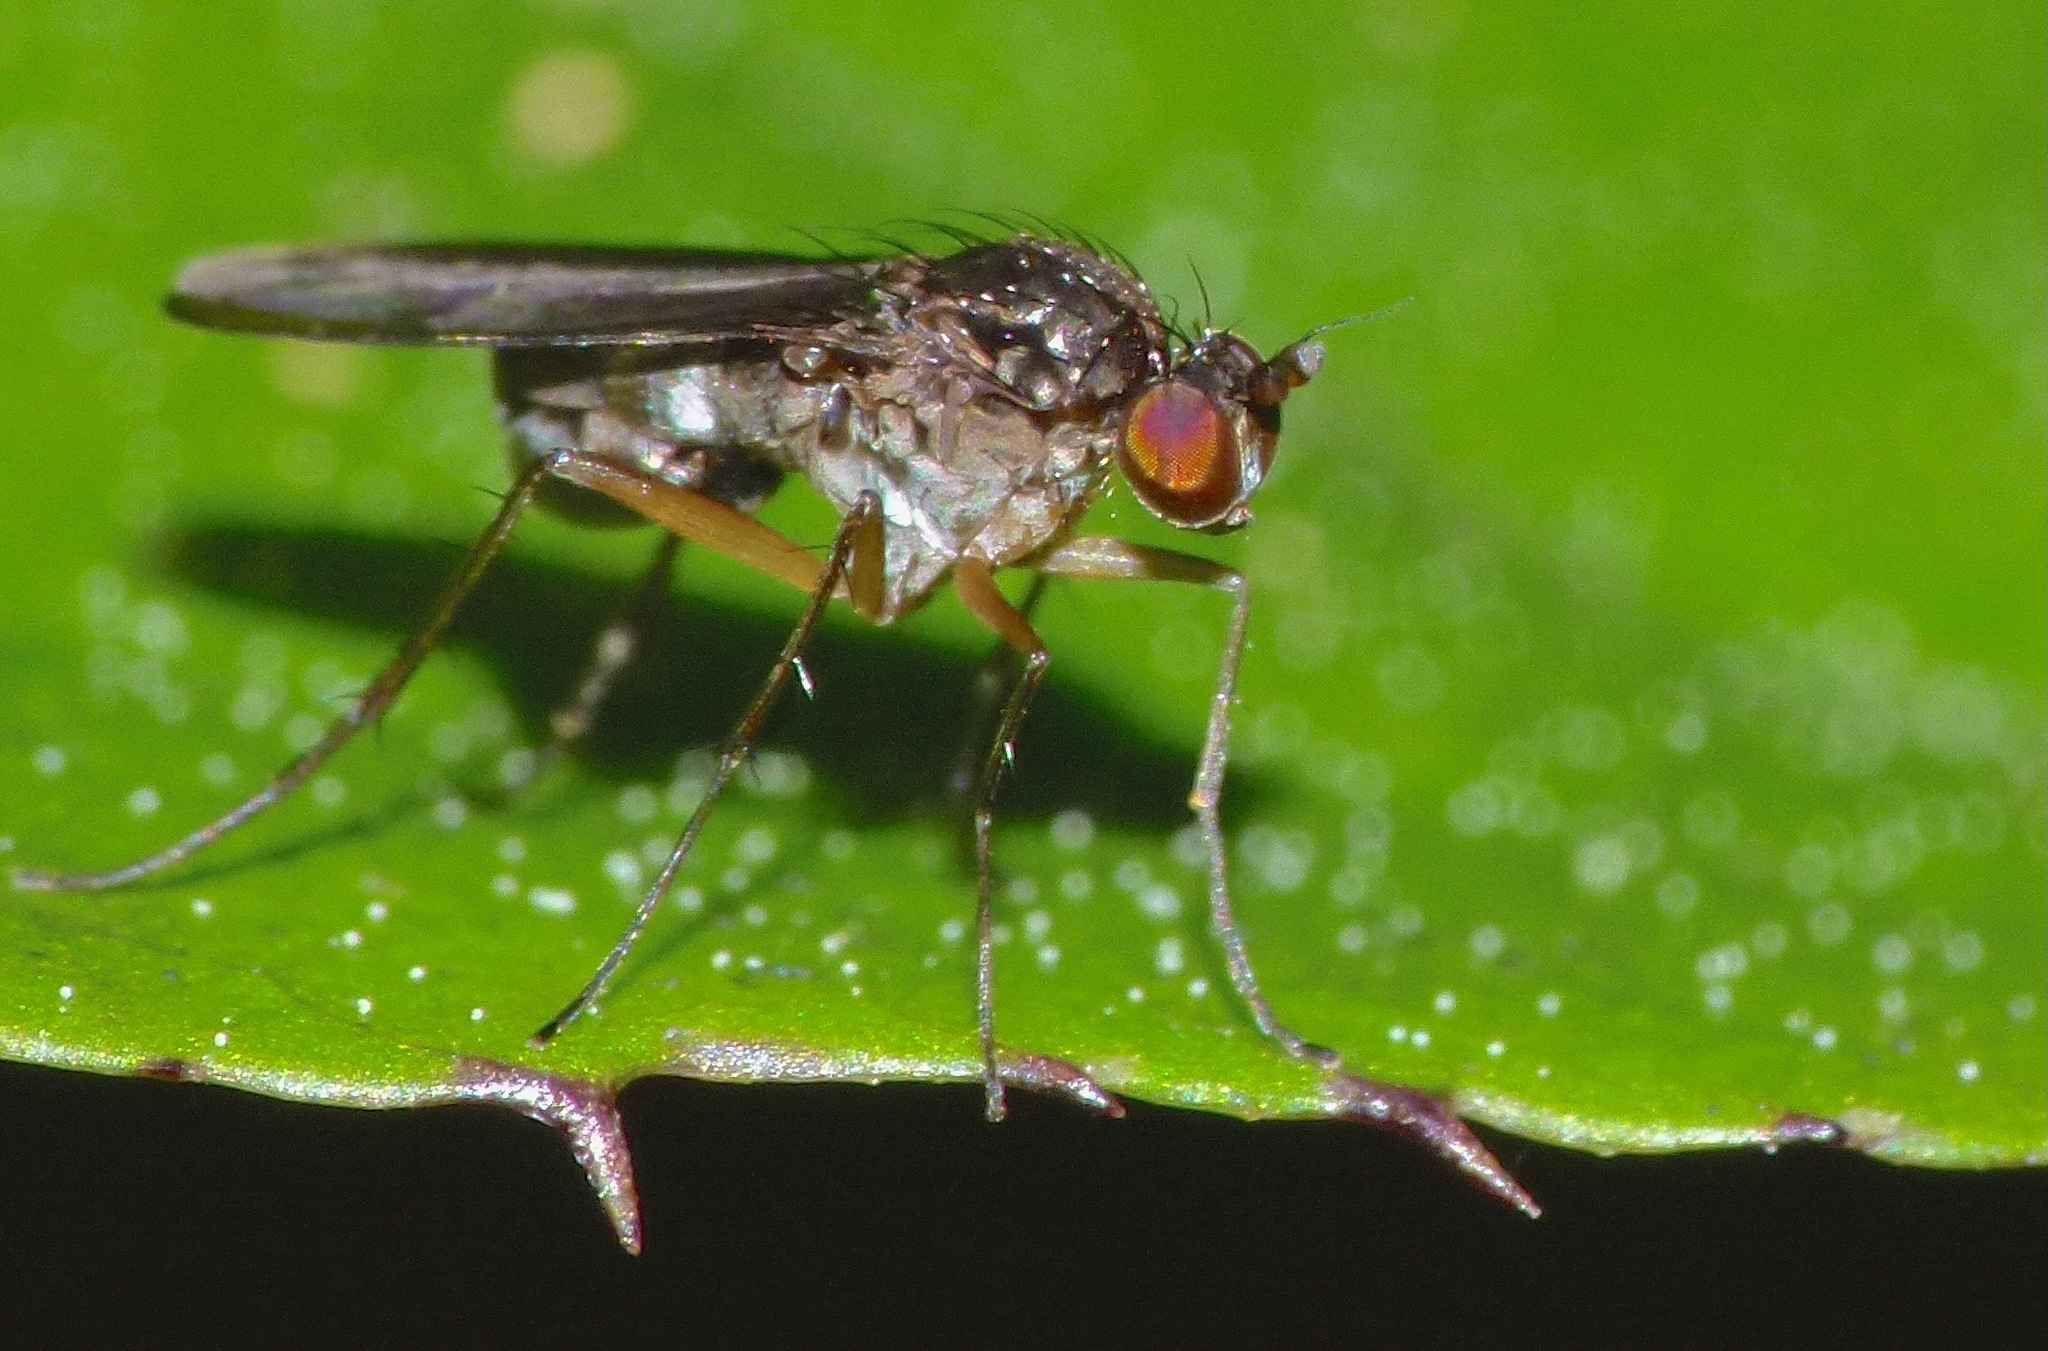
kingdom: Animalia
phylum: Arthropoda
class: Insecta
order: Diptera
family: Dolichopodidae
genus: Hercostomus
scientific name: Hercostomus argentifacies
